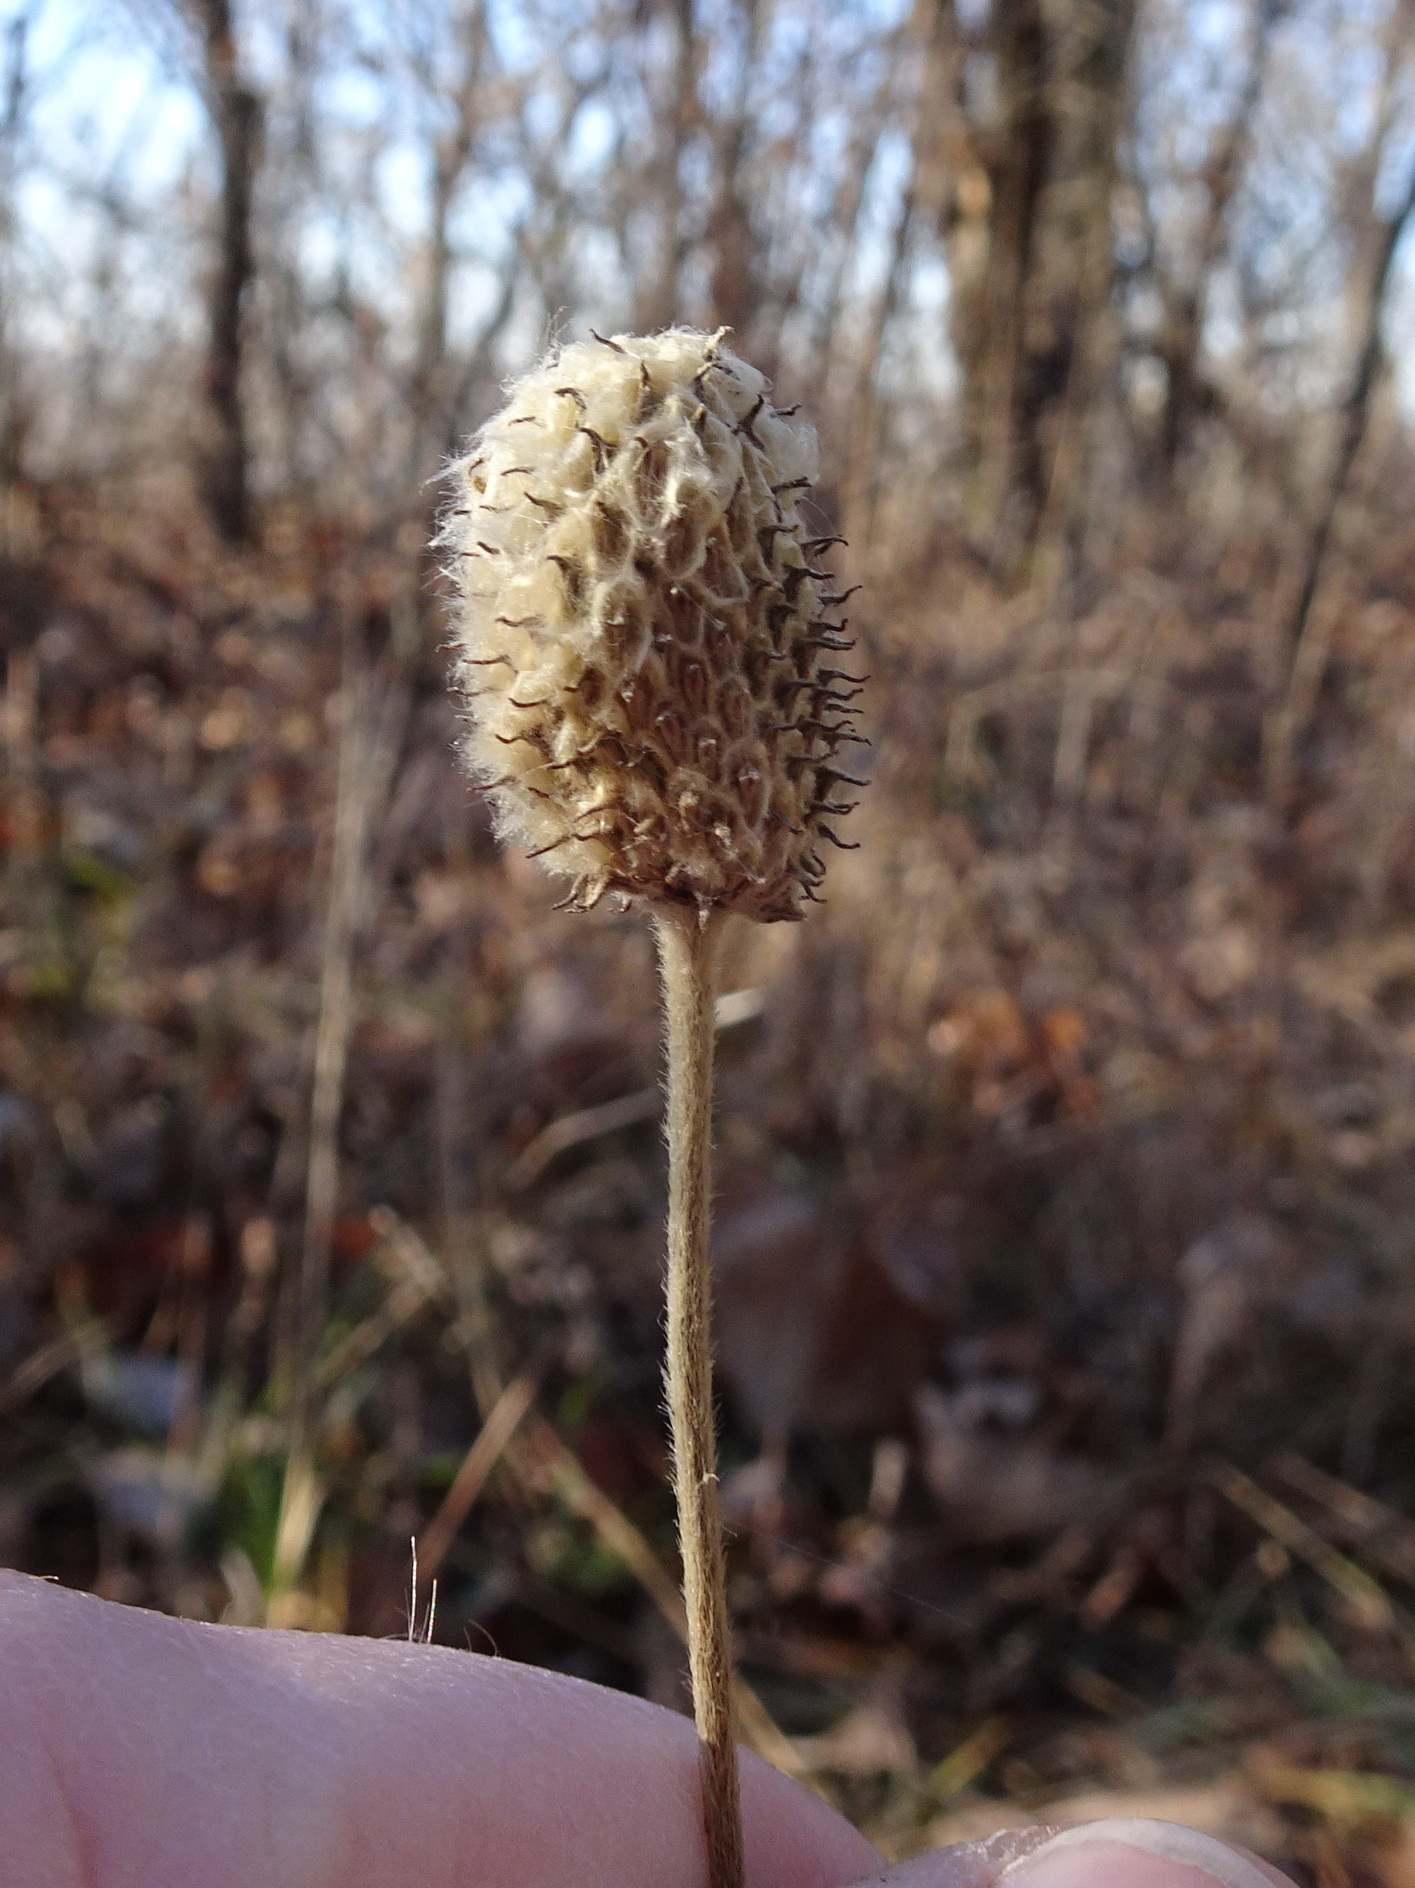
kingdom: Plantae
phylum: Tracheophyta
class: Magnoliopsida
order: Ranunculales
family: Ranunculaceae
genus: Anemone
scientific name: Anemone virginiana
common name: Tall anemone
